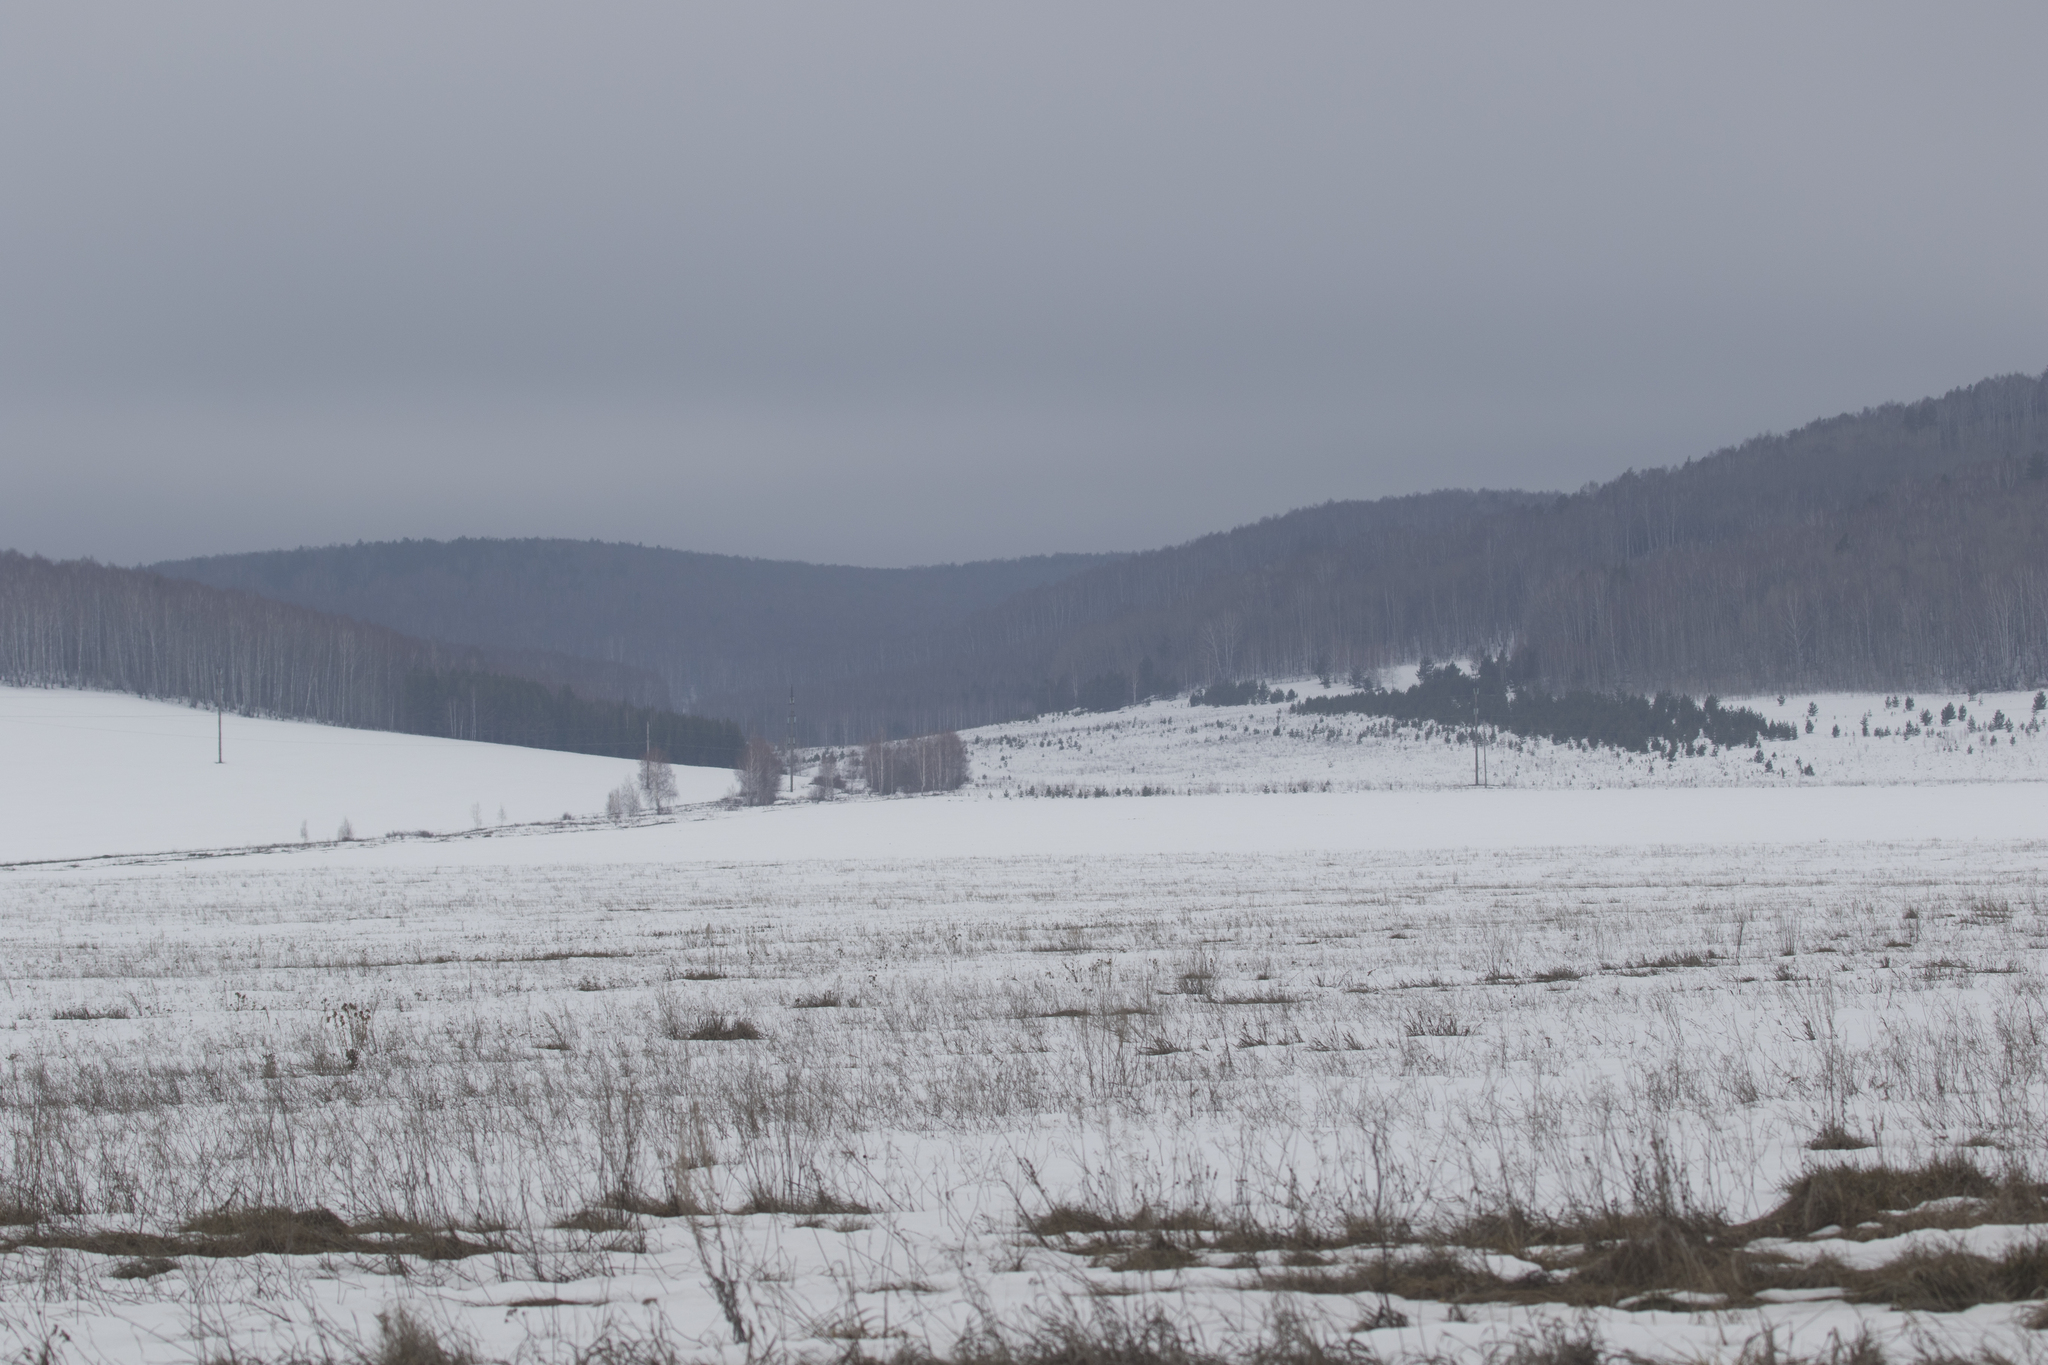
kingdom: Plantae
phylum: Tracheophyta
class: Pinopsida
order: Pinales
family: Pinaceae
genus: Pinus
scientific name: Pinus sylvestris
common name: Scots pine
